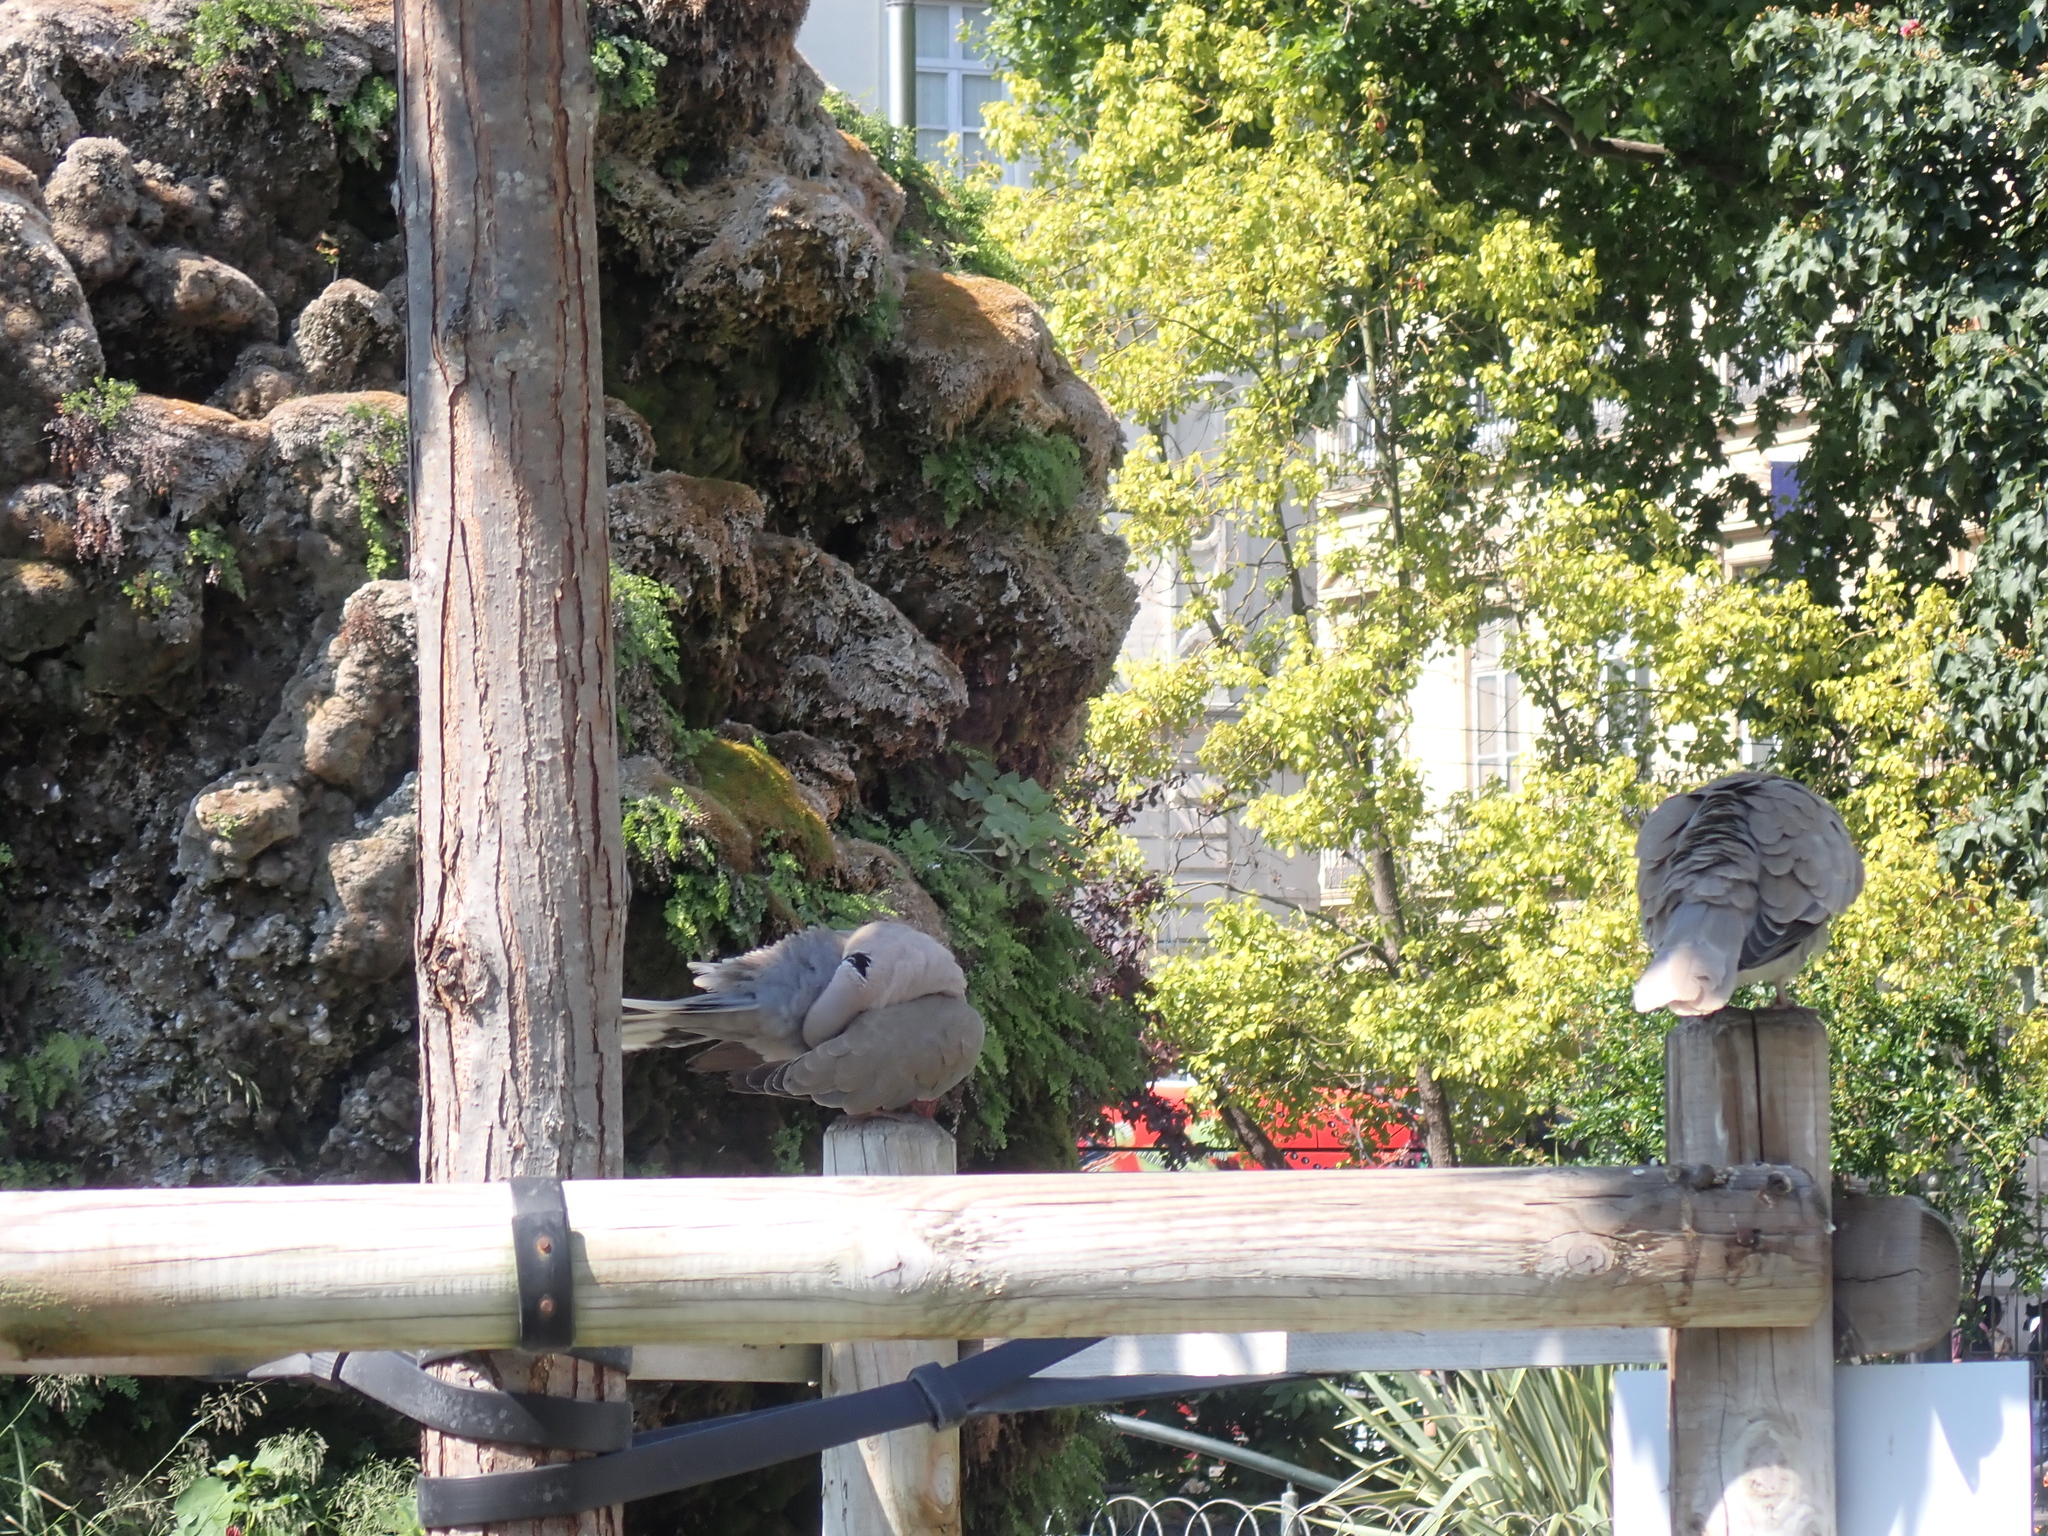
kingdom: Animalia
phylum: Chordata
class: Aves
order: Columbiformes
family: Columbidae
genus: Streptopelia
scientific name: Streptopelia decaocto
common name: Eurasian collared dove
